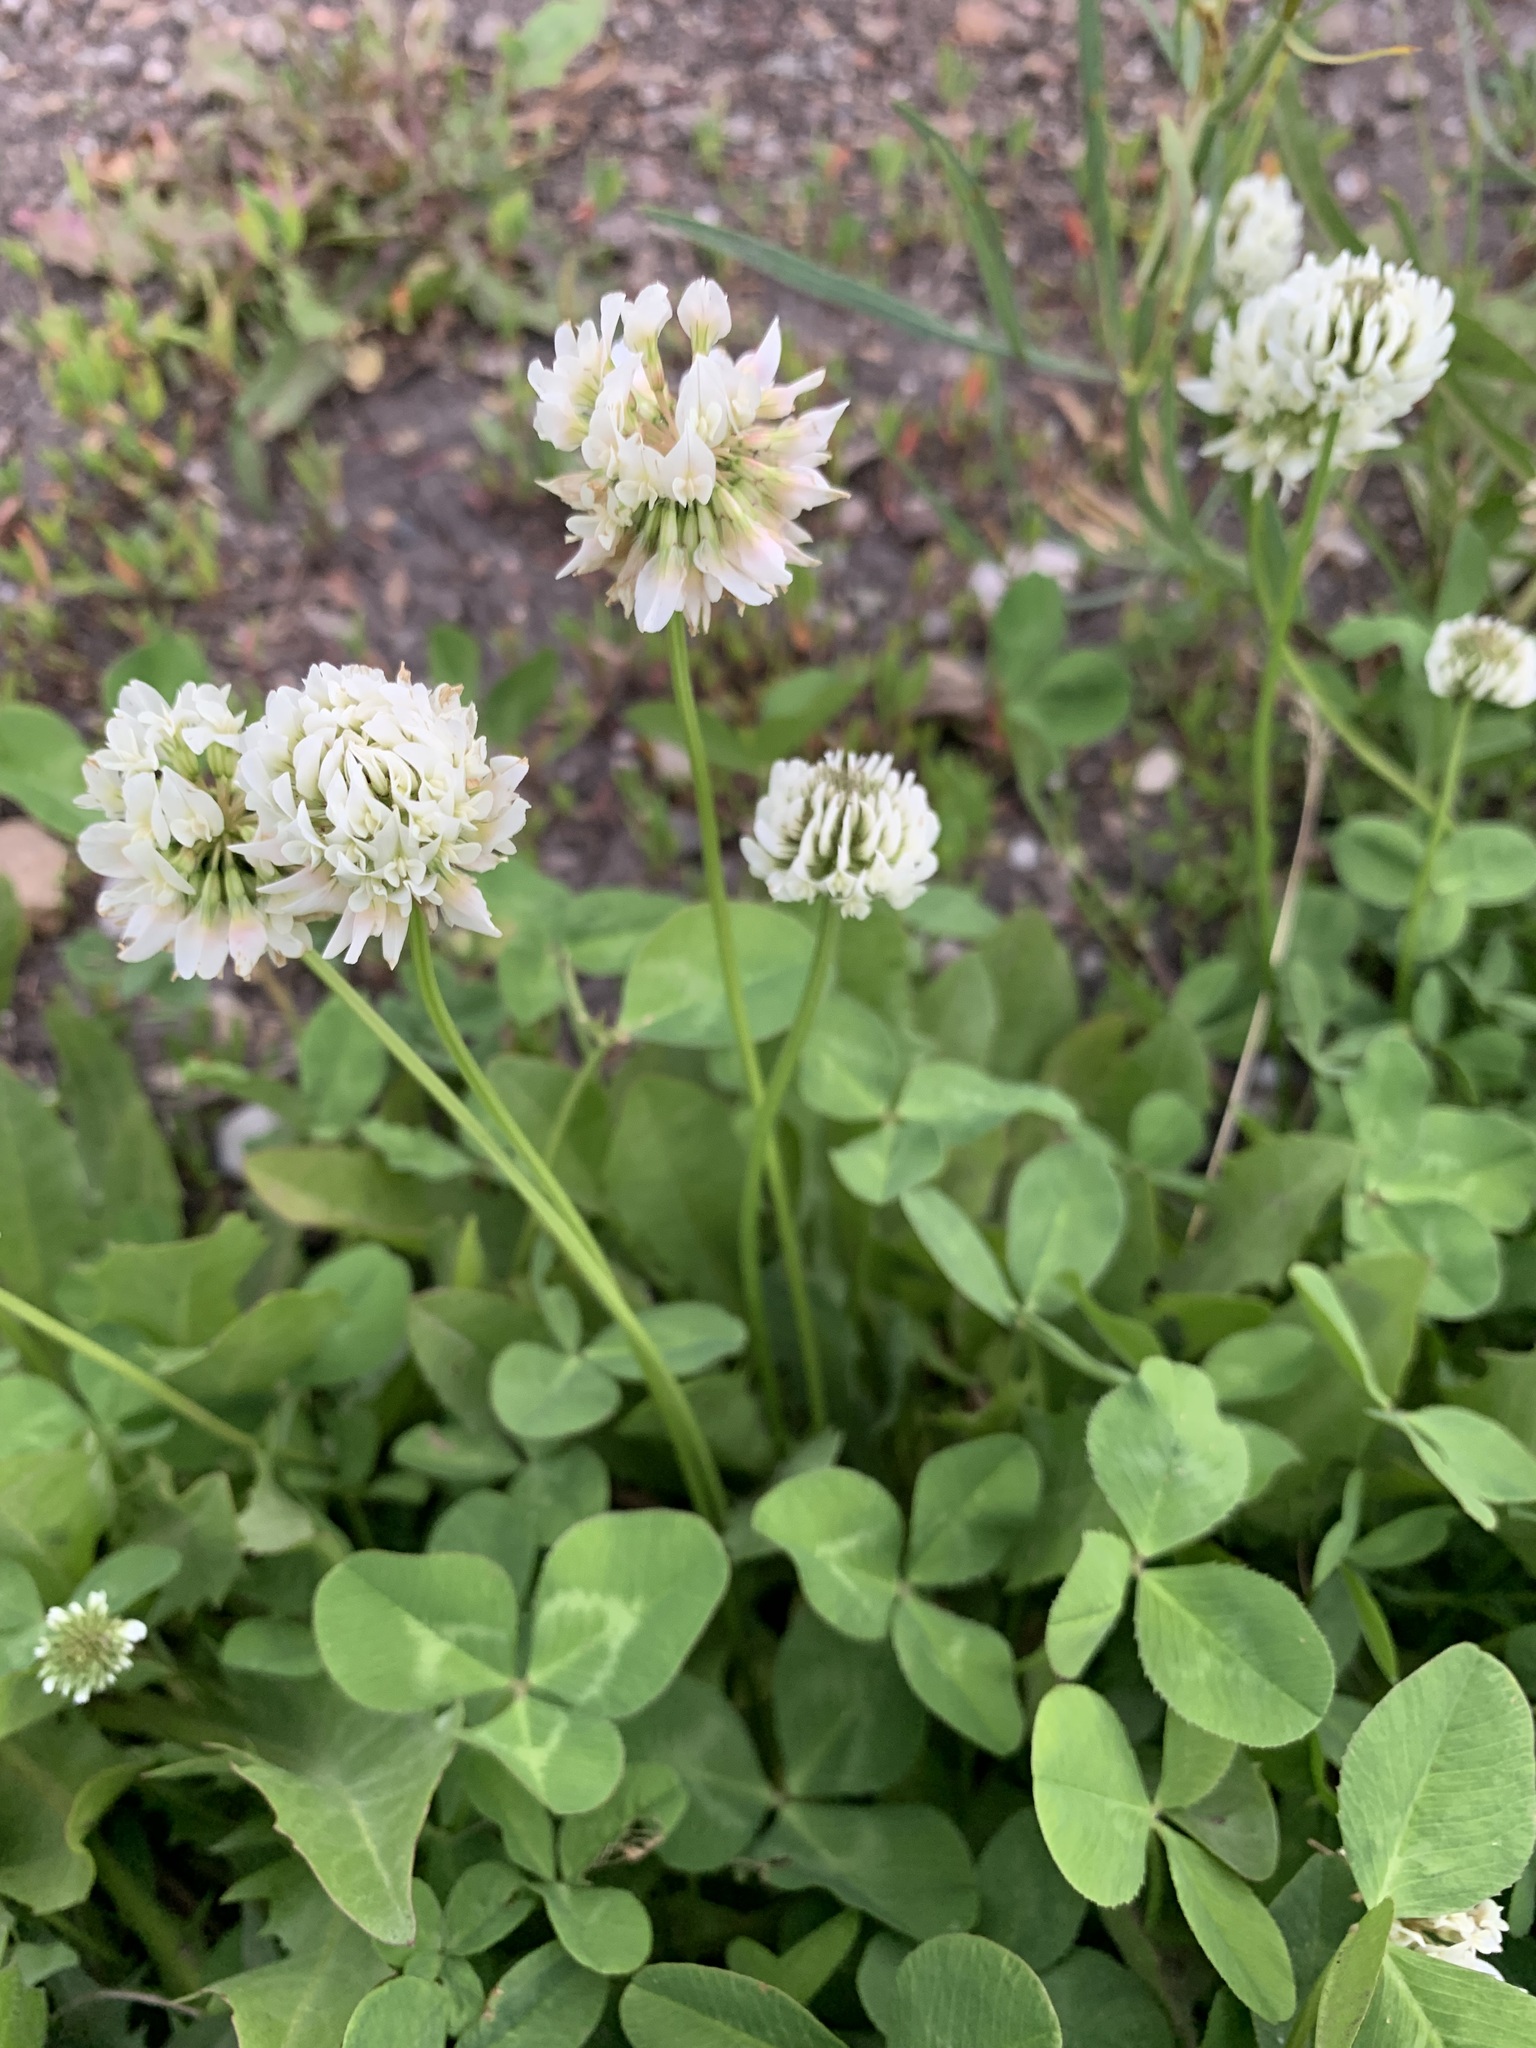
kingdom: Plantae
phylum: Tracheophyta
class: Magnoliopsida
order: Fabales
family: Fabaceae
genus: Trifolium
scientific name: Trifolium repens
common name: White clover
